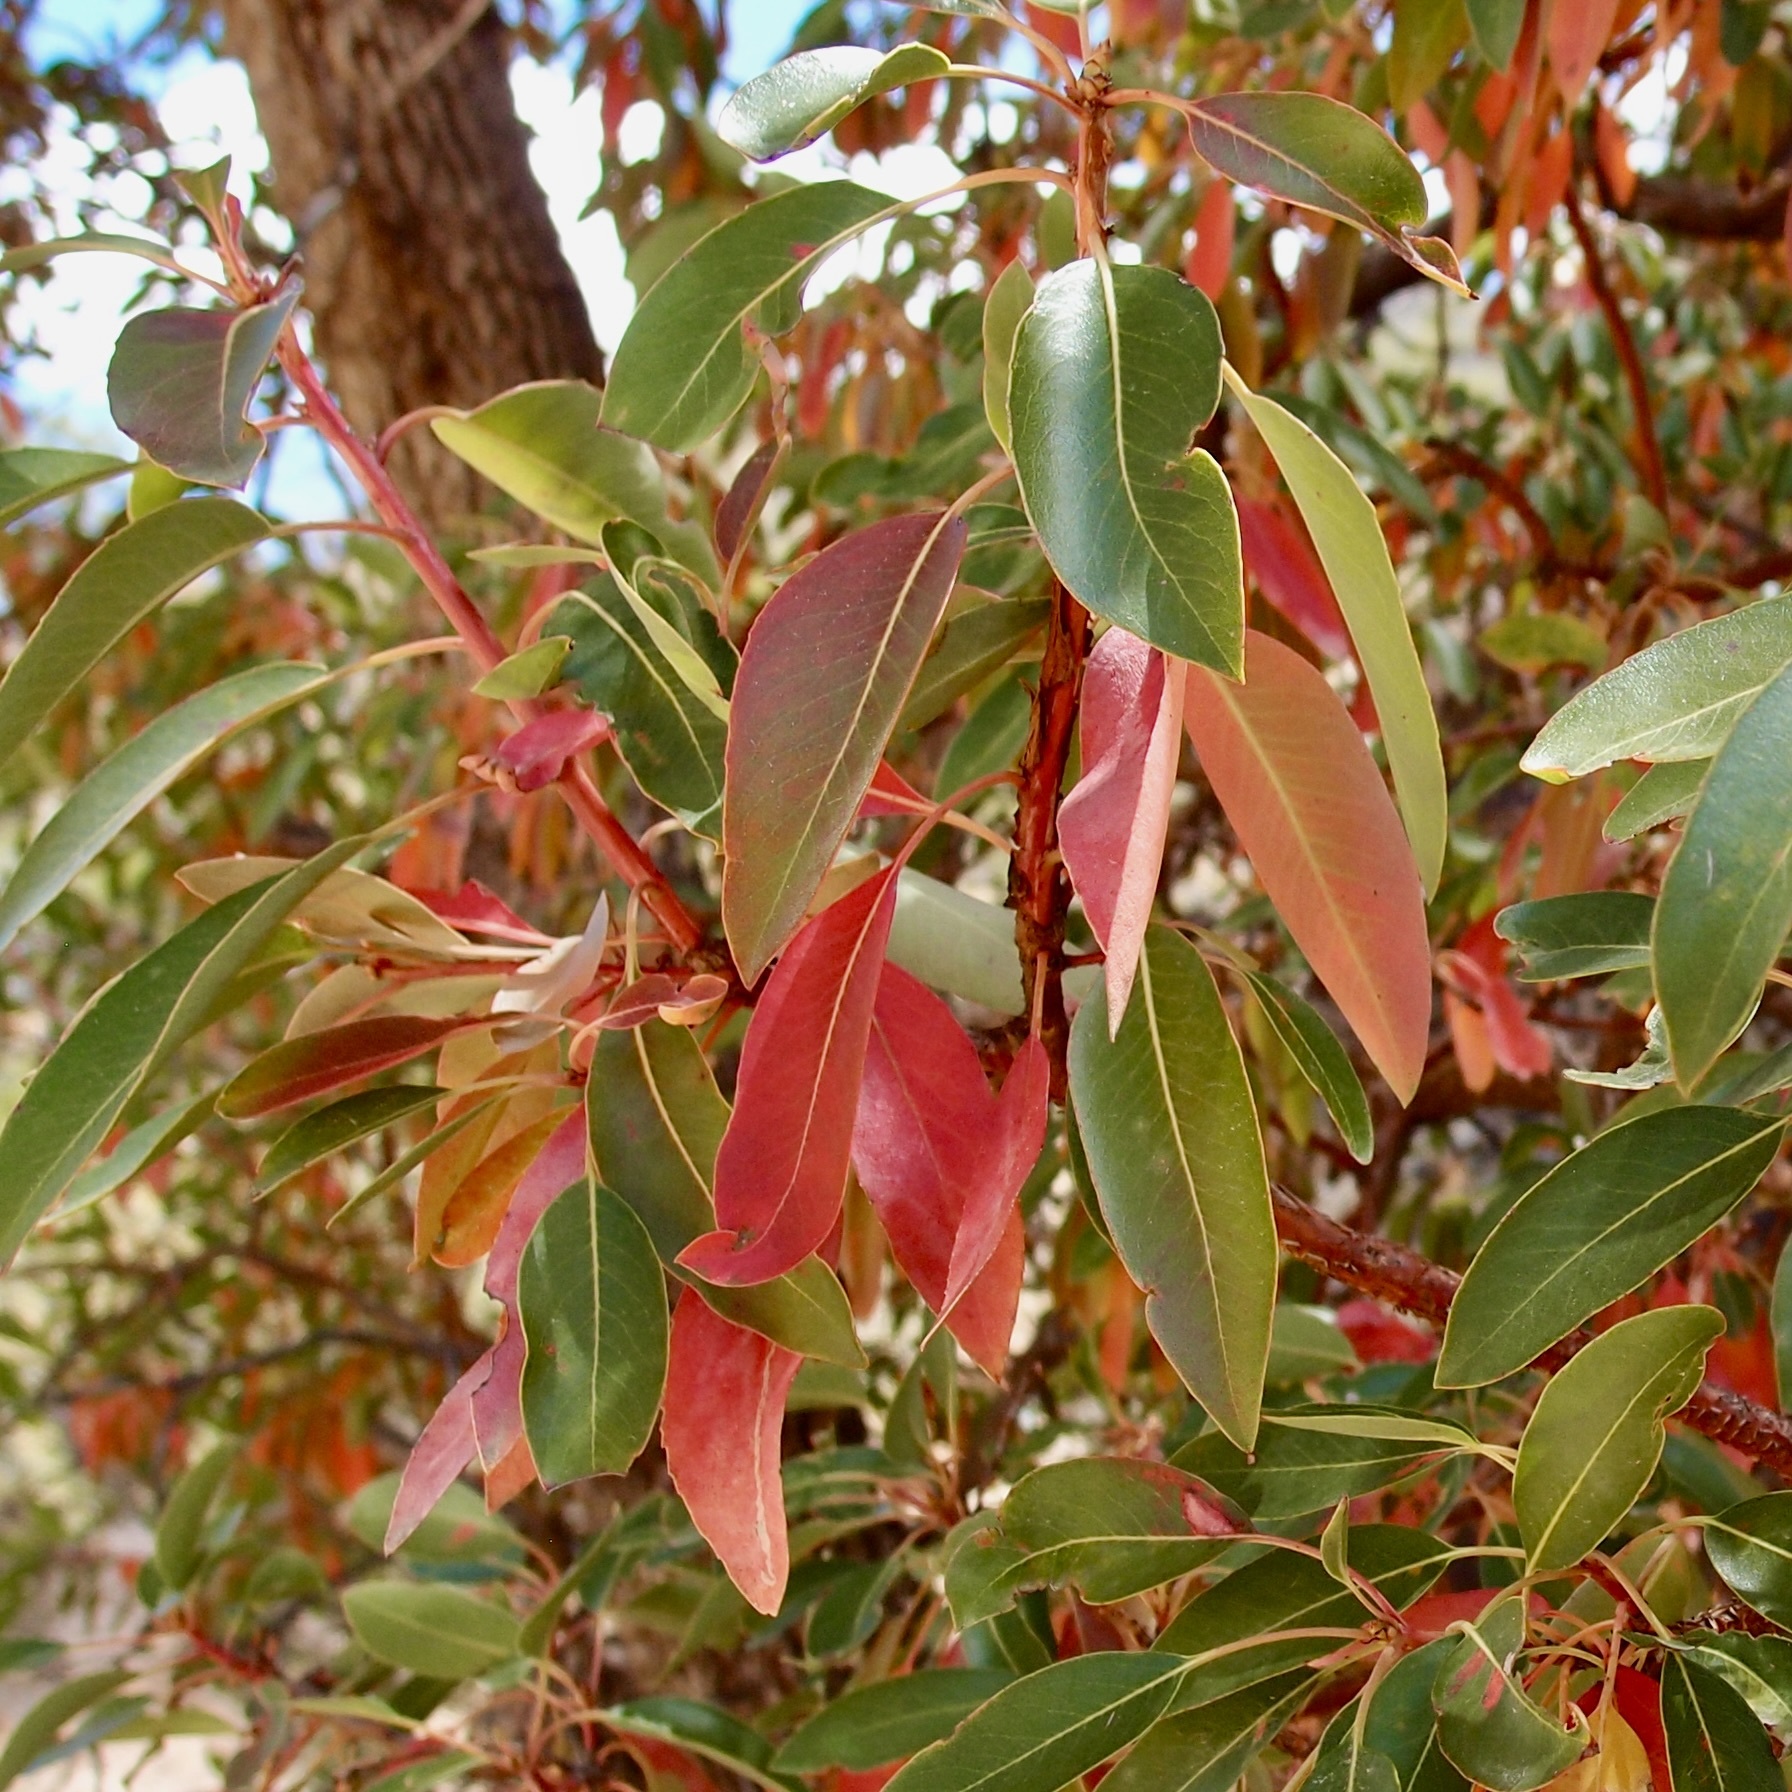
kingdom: Plantae
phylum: Tracheophyta
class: Magnoliopsida
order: Ericales
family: Ericaceae
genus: Arbutus
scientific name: Arbutus arizonica
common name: Arizona madrone
